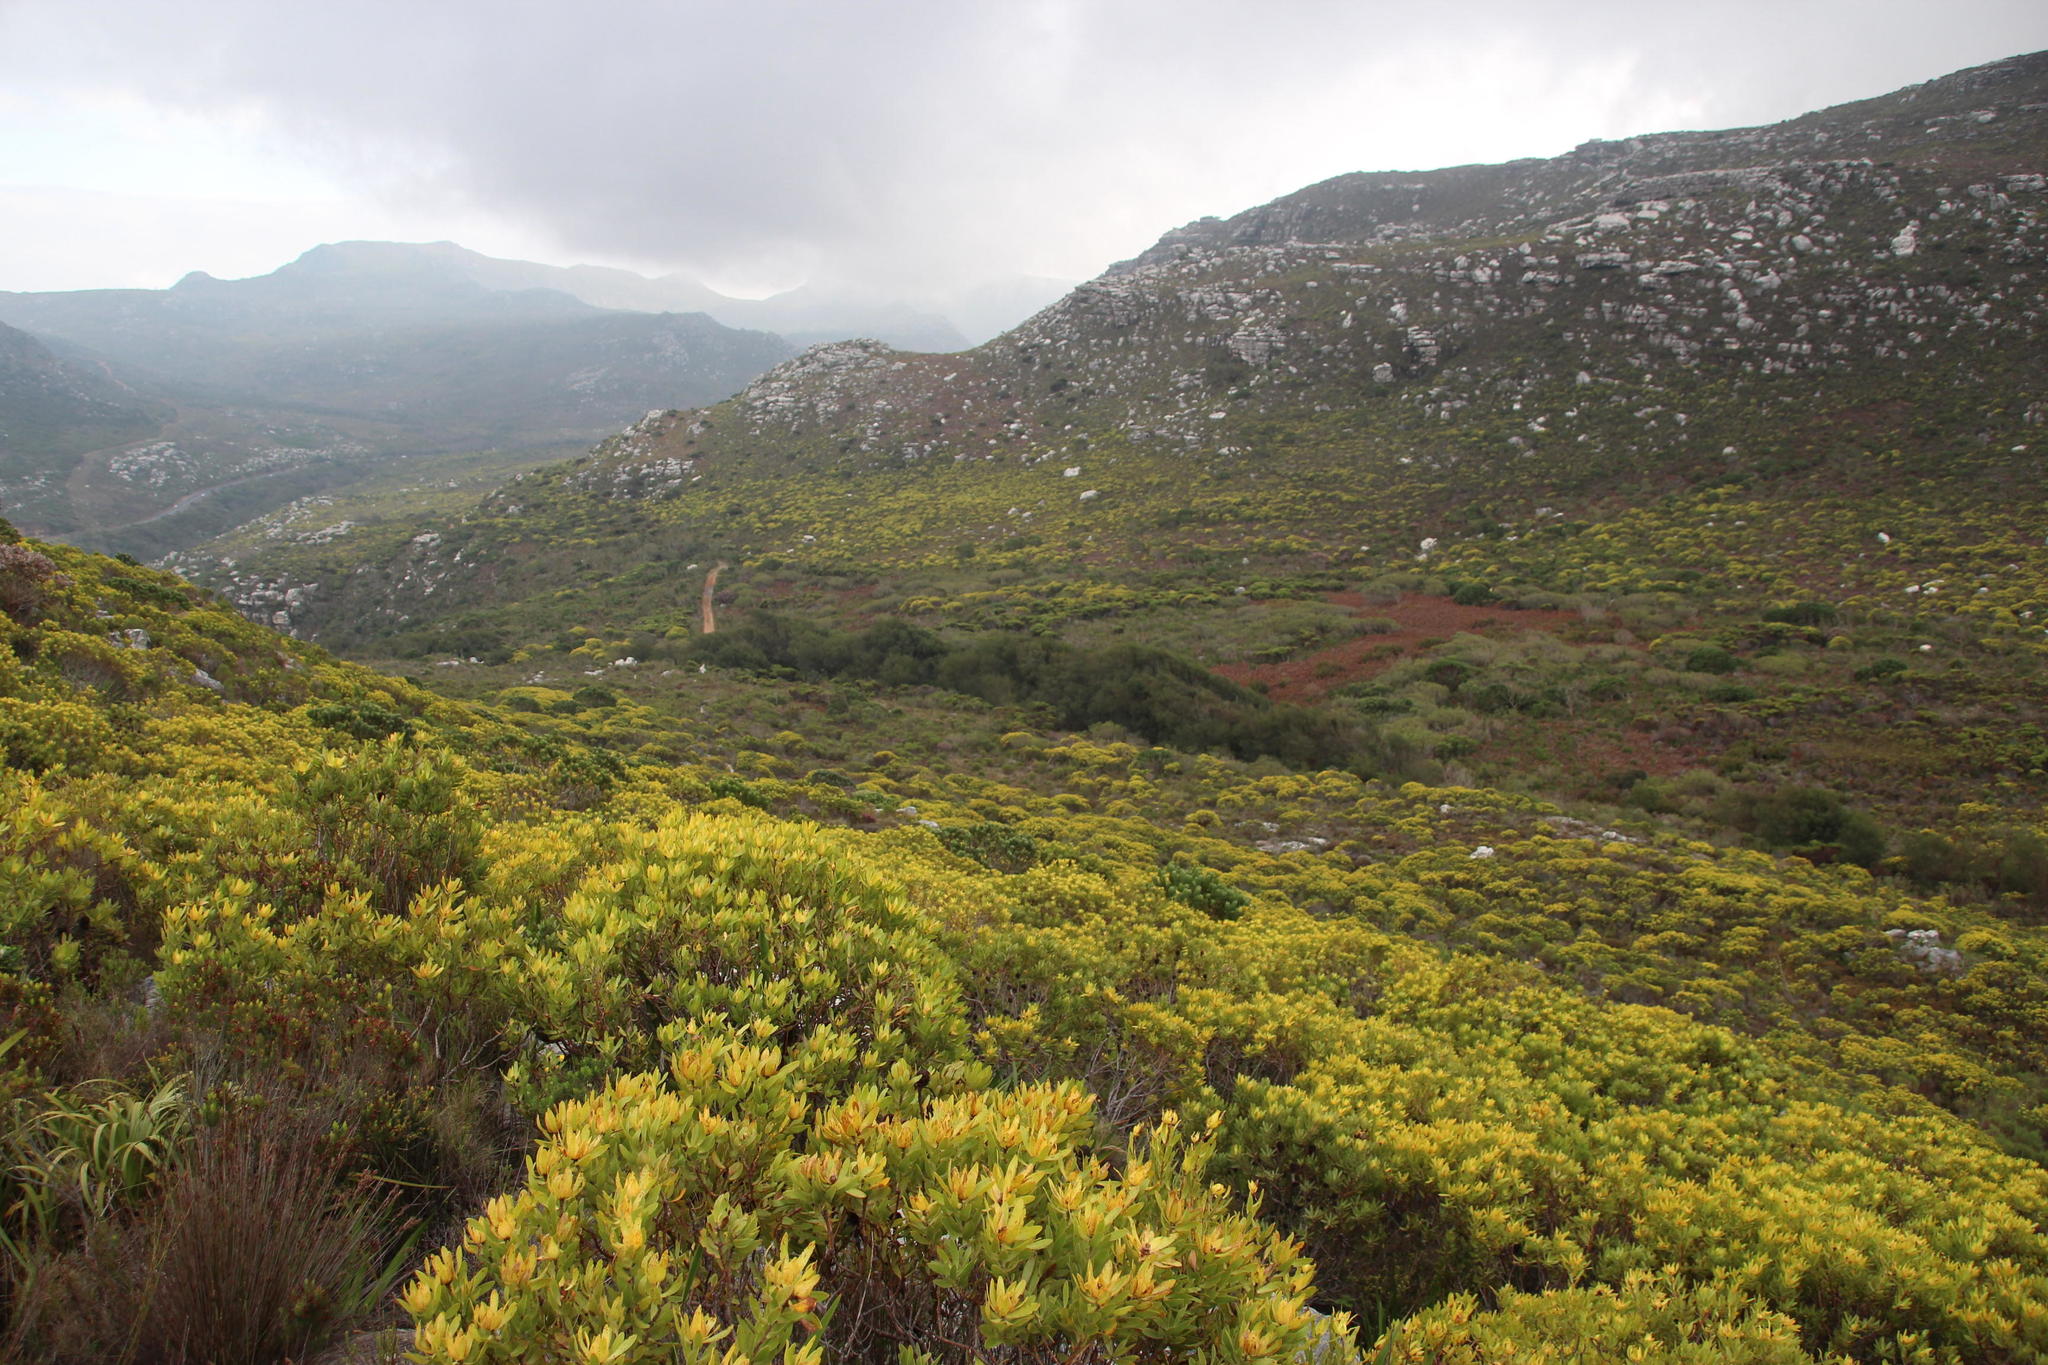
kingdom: Plantae
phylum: Tracheophyta
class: Magnoliopsida
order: Proteales
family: Proteaceae
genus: Leucadendron
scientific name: Leucadendron laureolum
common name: Golden sunshinebush
